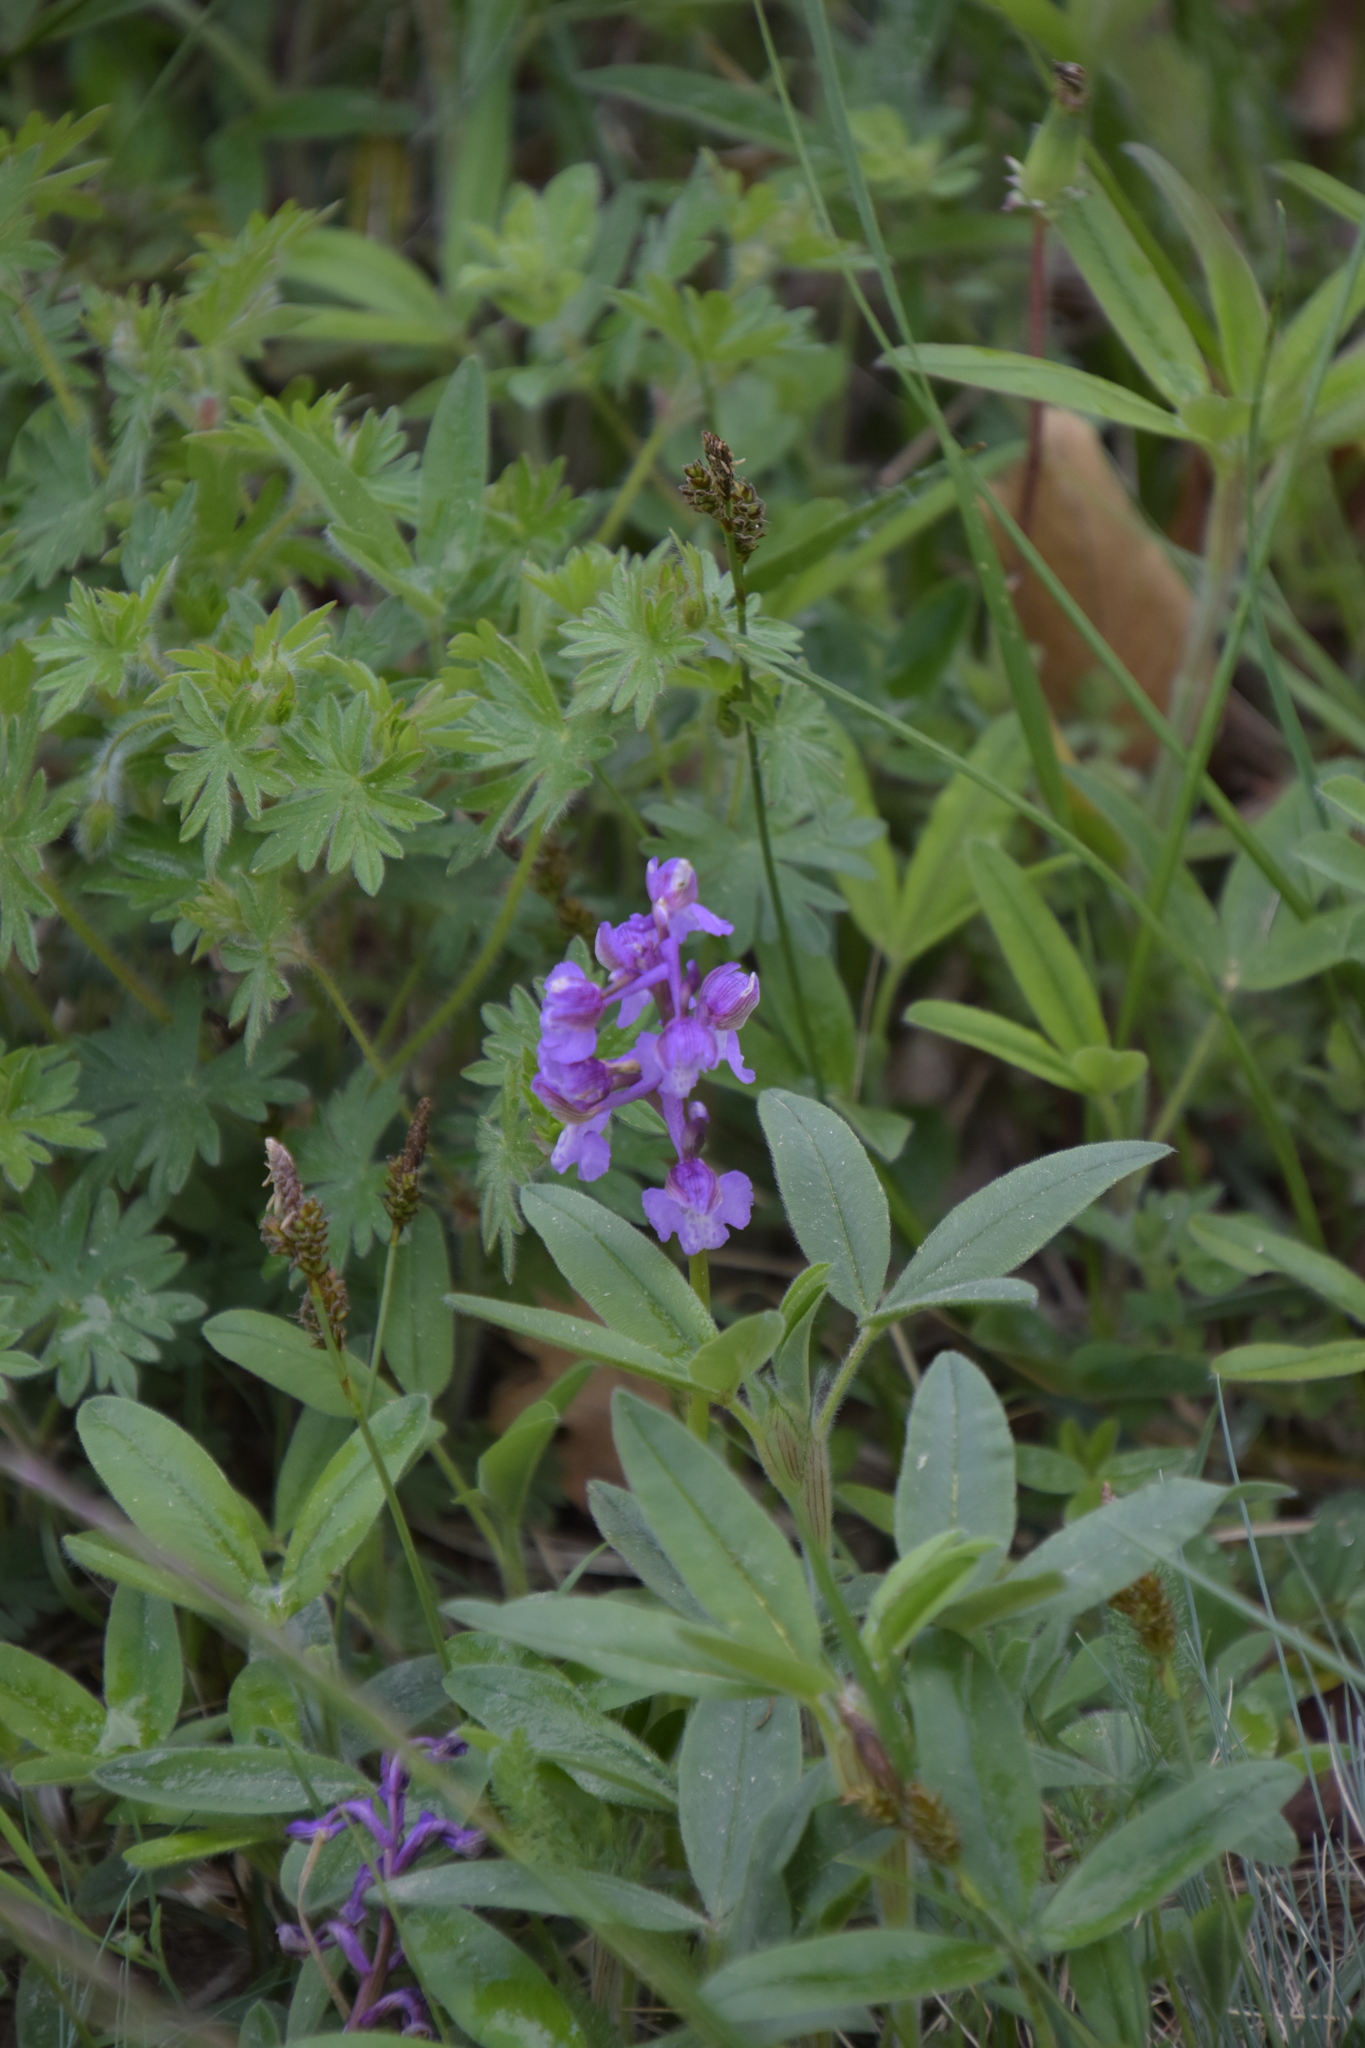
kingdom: Plantae
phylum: Tracheophyta
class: Liliopsida
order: Asparagales
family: Orchidaceae
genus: Anacamptis
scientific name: Anacamptis morio
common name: Green-winged orchid
